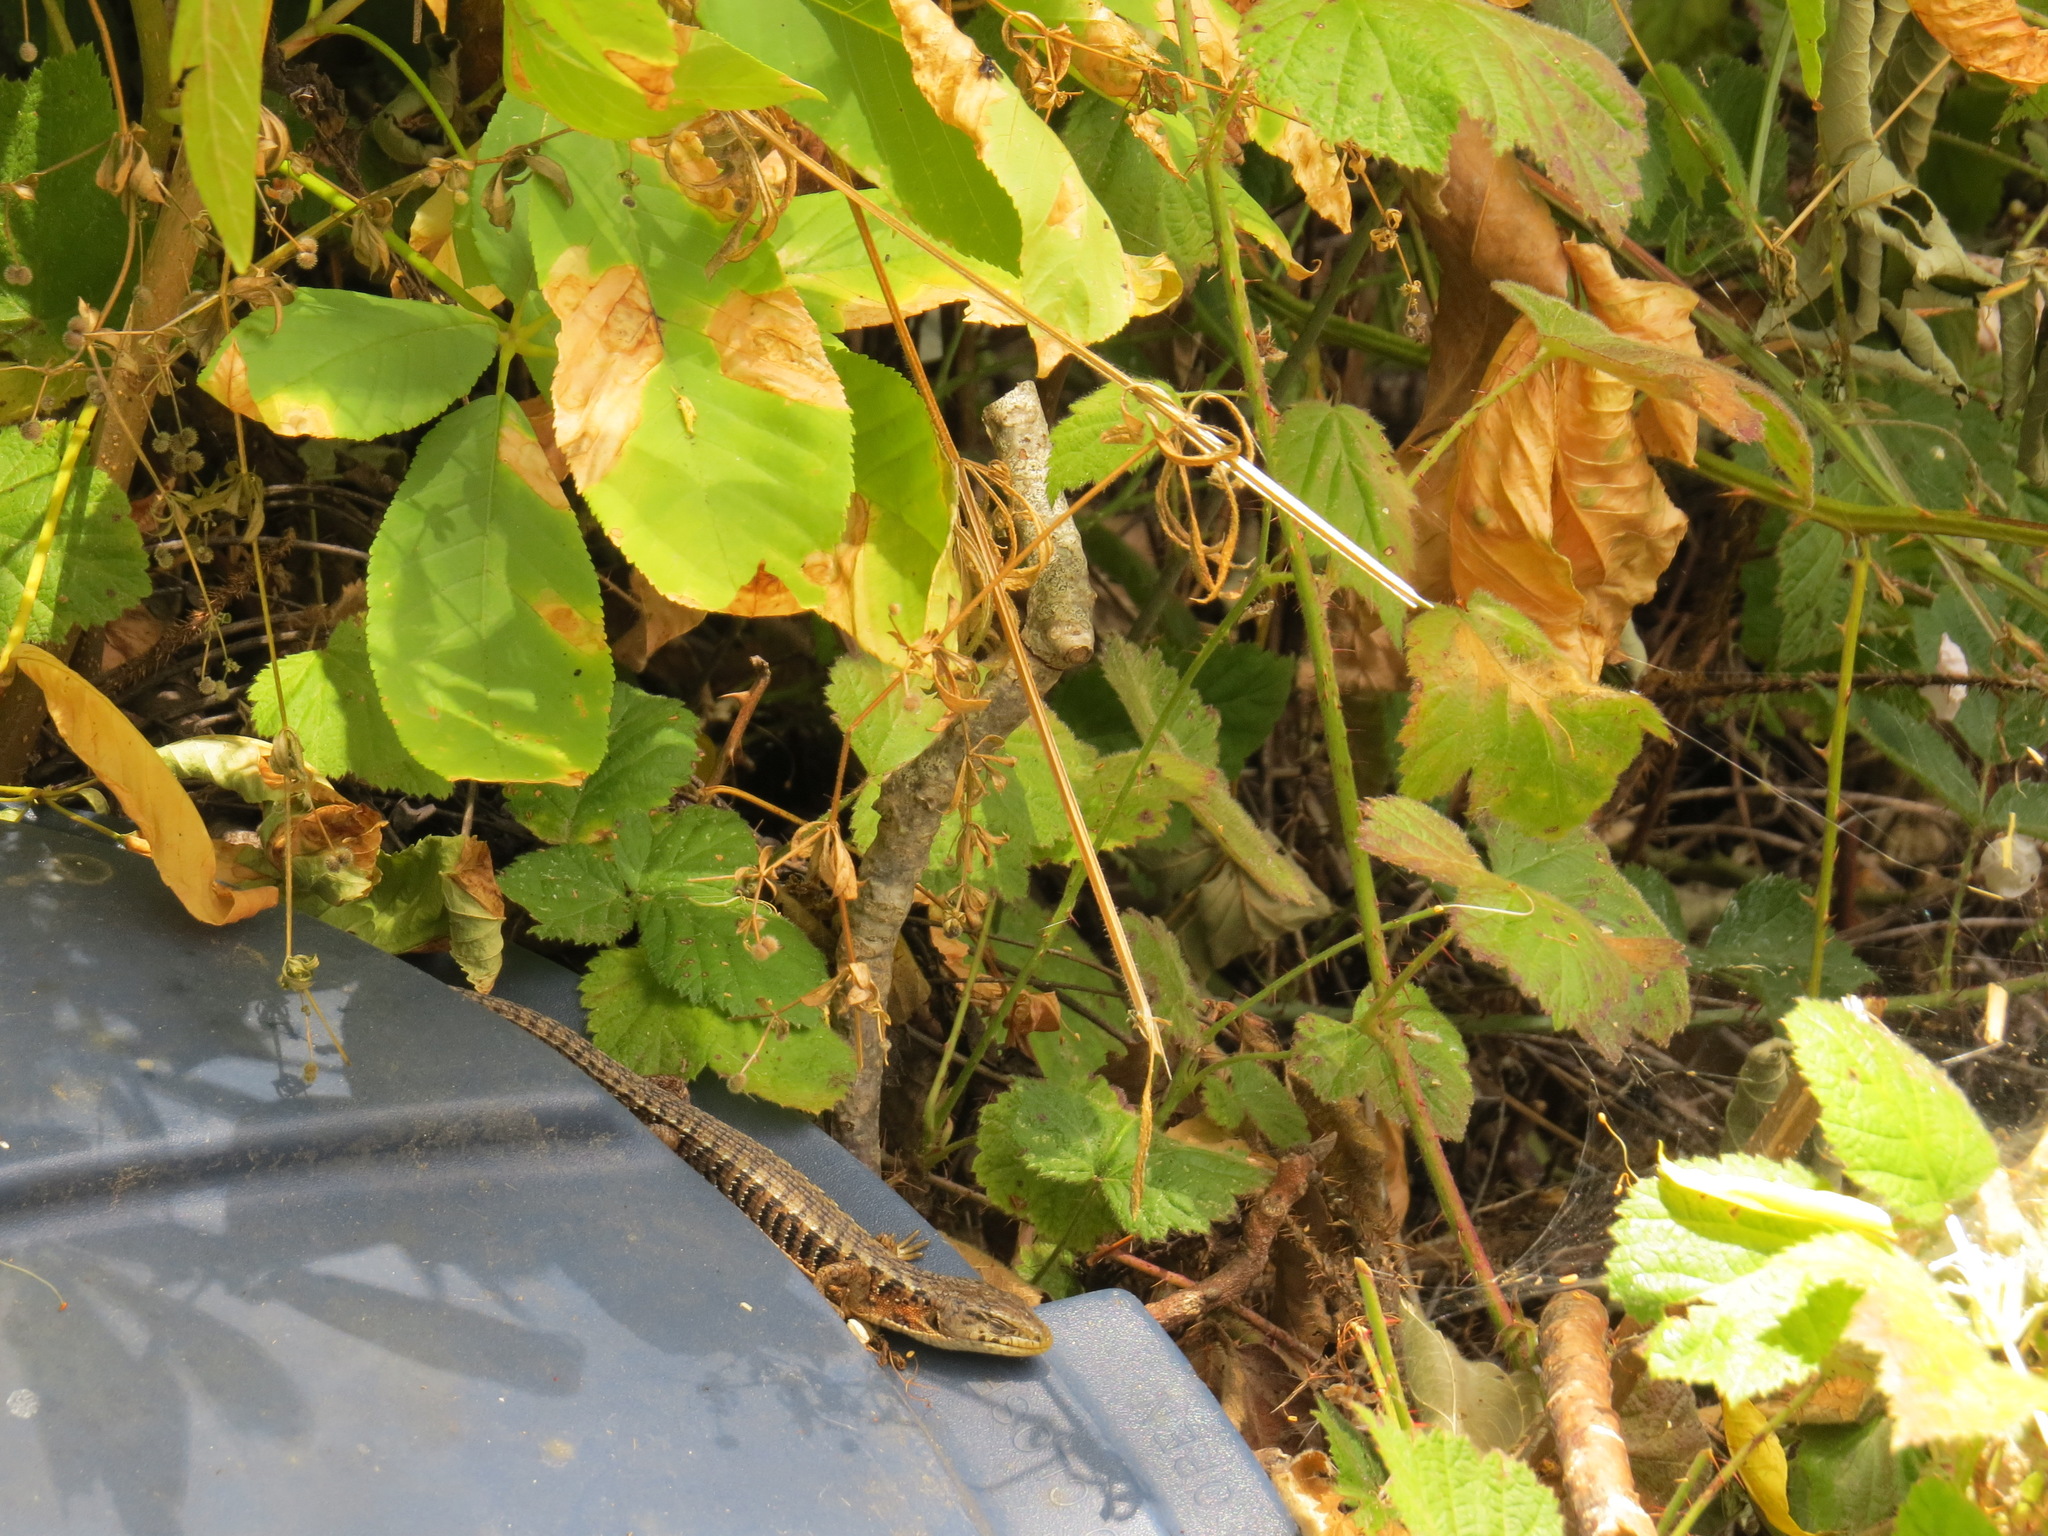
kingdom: Animalia
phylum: Chordata
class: Squamata
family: Anguidae
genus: Elgaria
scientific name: Elgaria coerulea
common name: Northern alligator lizard
